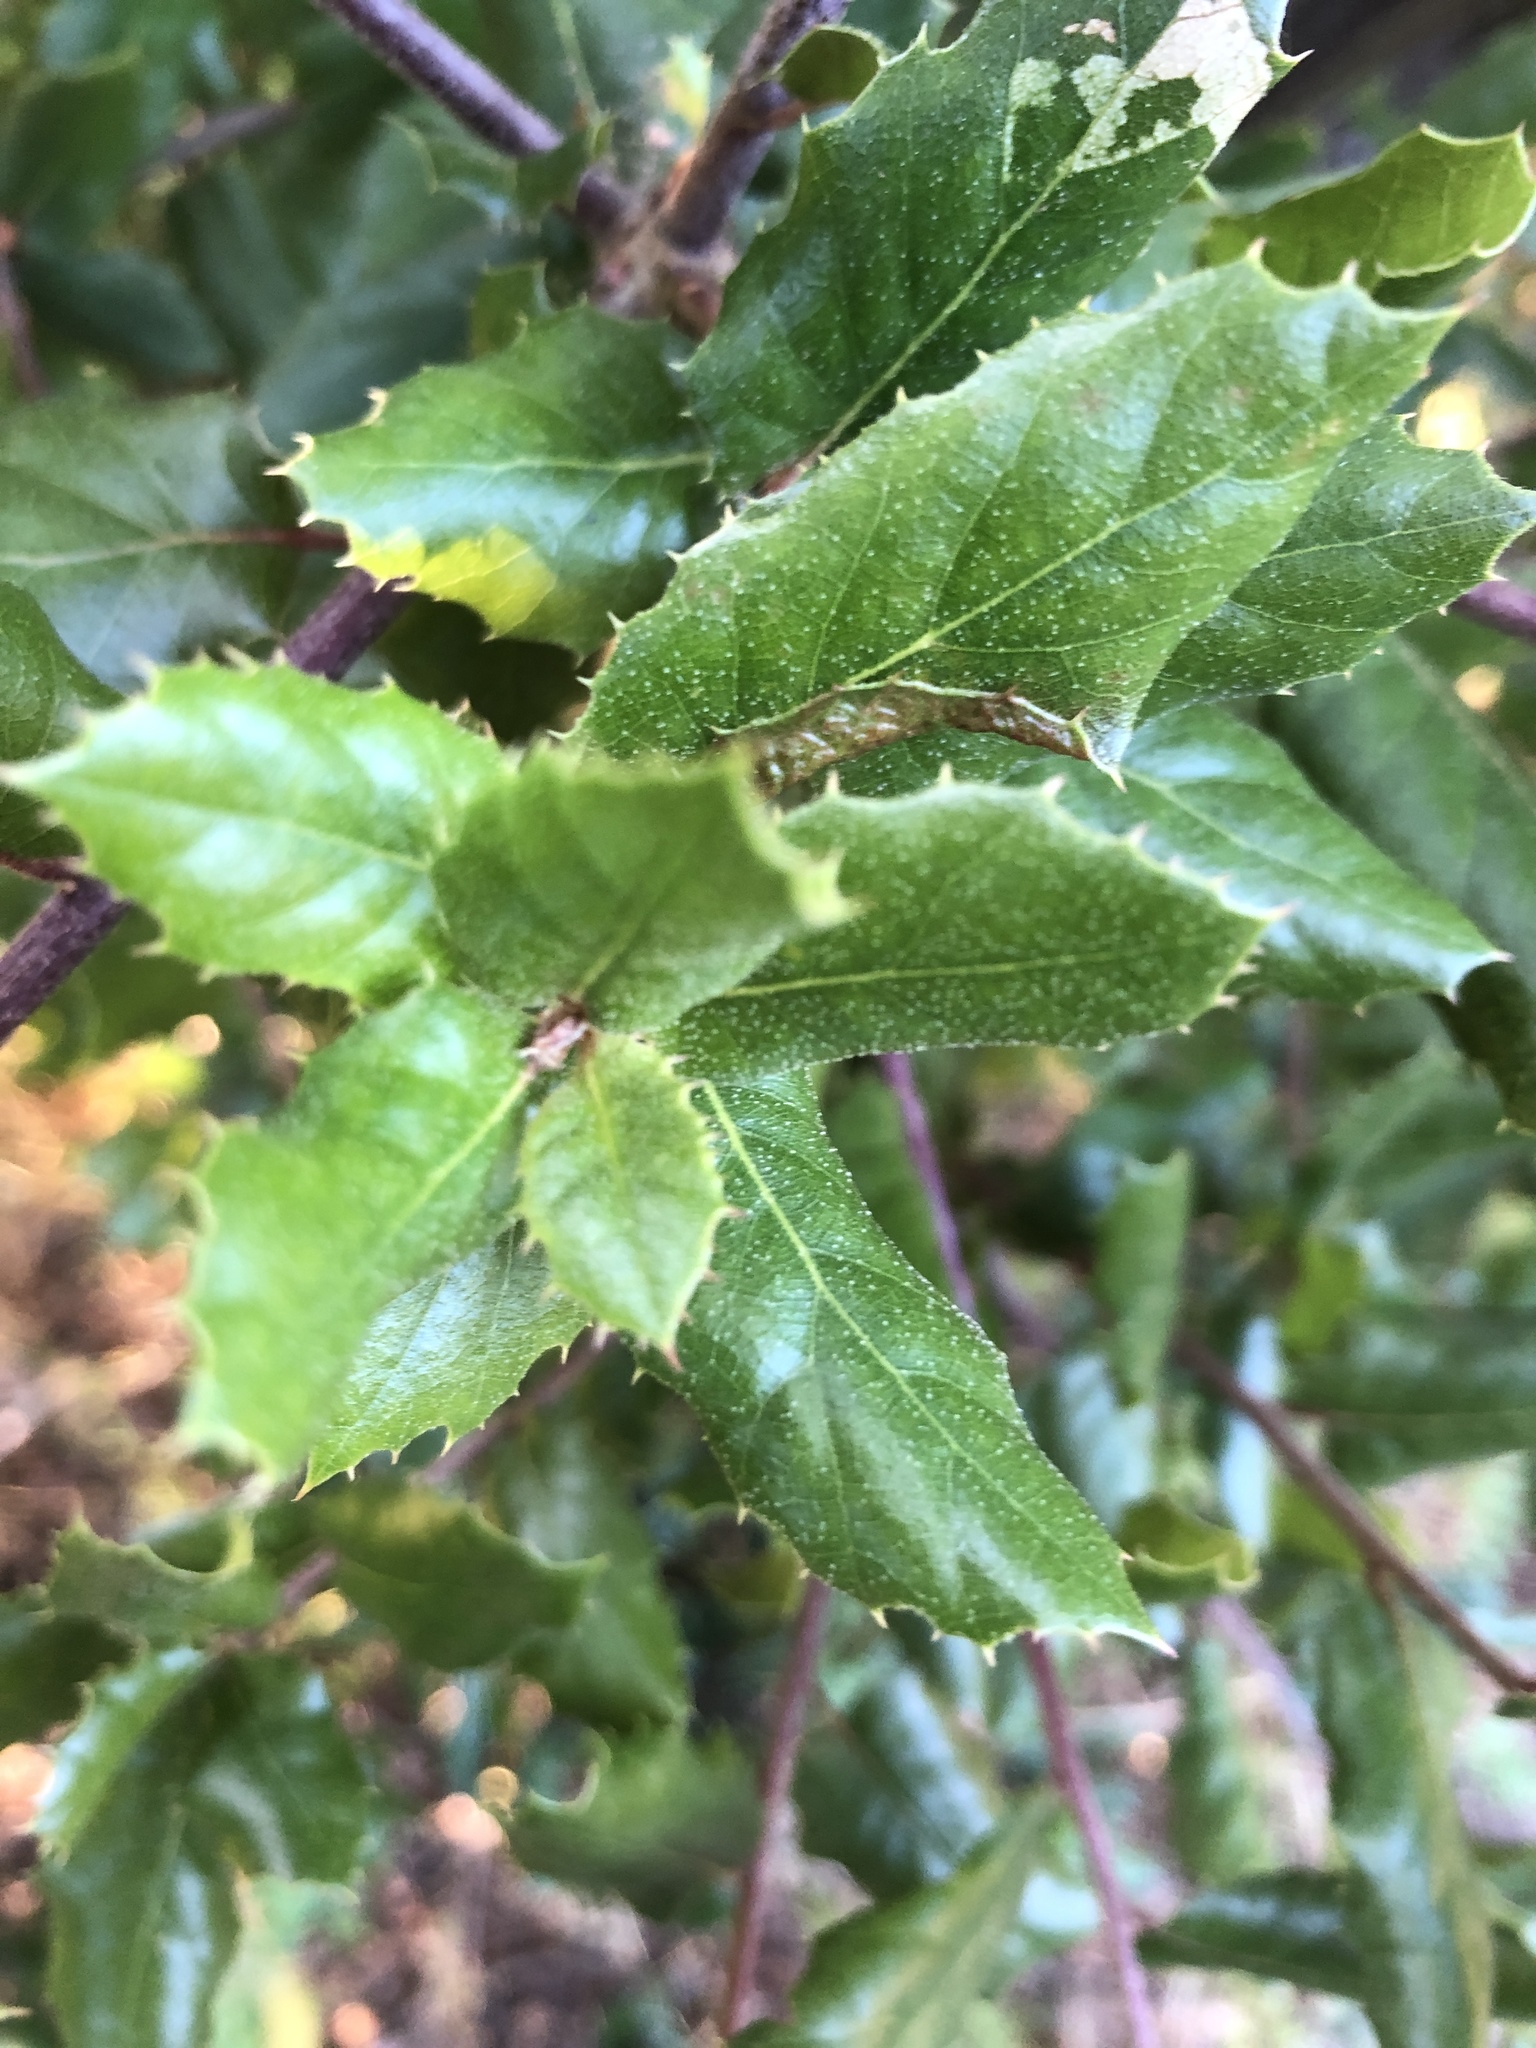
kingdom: Plantae
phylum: Tracheophyta
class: Magnoliopsida
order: Fagales
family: Fagaceae
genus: Quercus
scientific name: Quercus agrifolia
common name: California live oak
